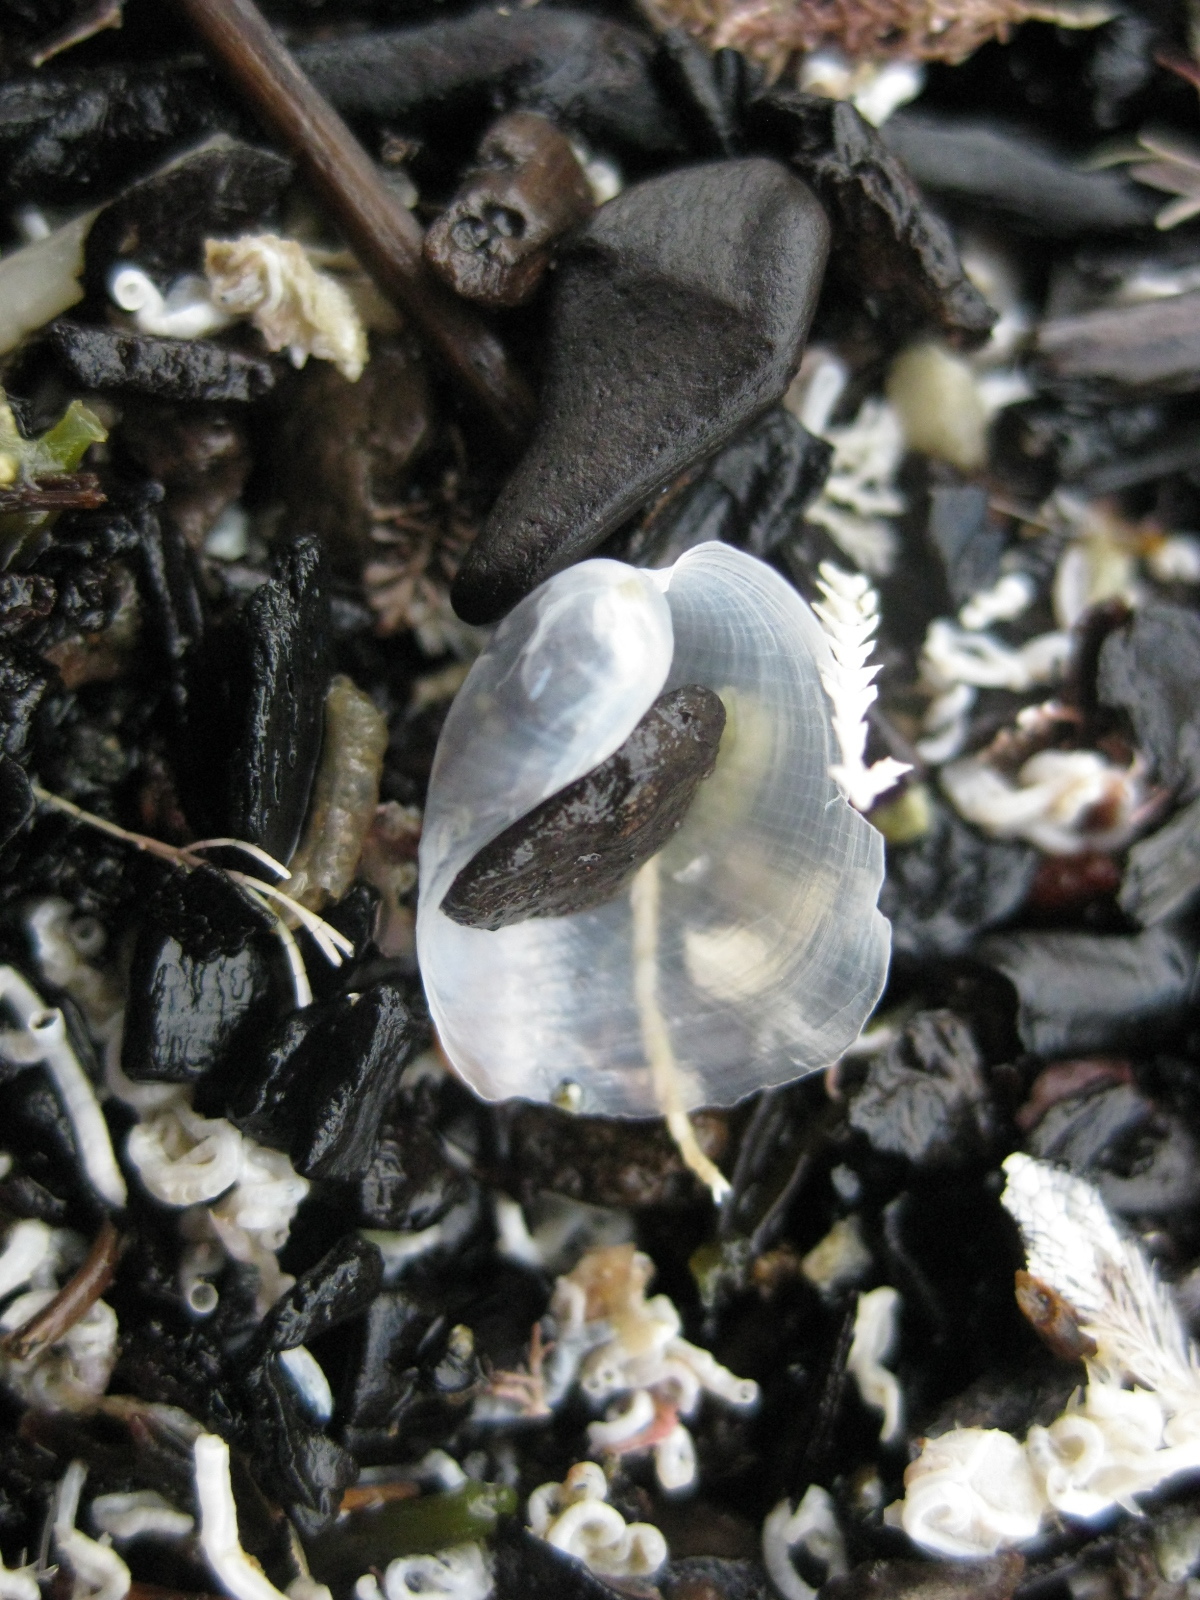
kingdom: Animalia
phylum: Mollusca
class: Gastropoda
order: Cephalaspidea
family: Philinidae
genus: Philine
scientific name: Philine auriformis
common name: Sea snail
